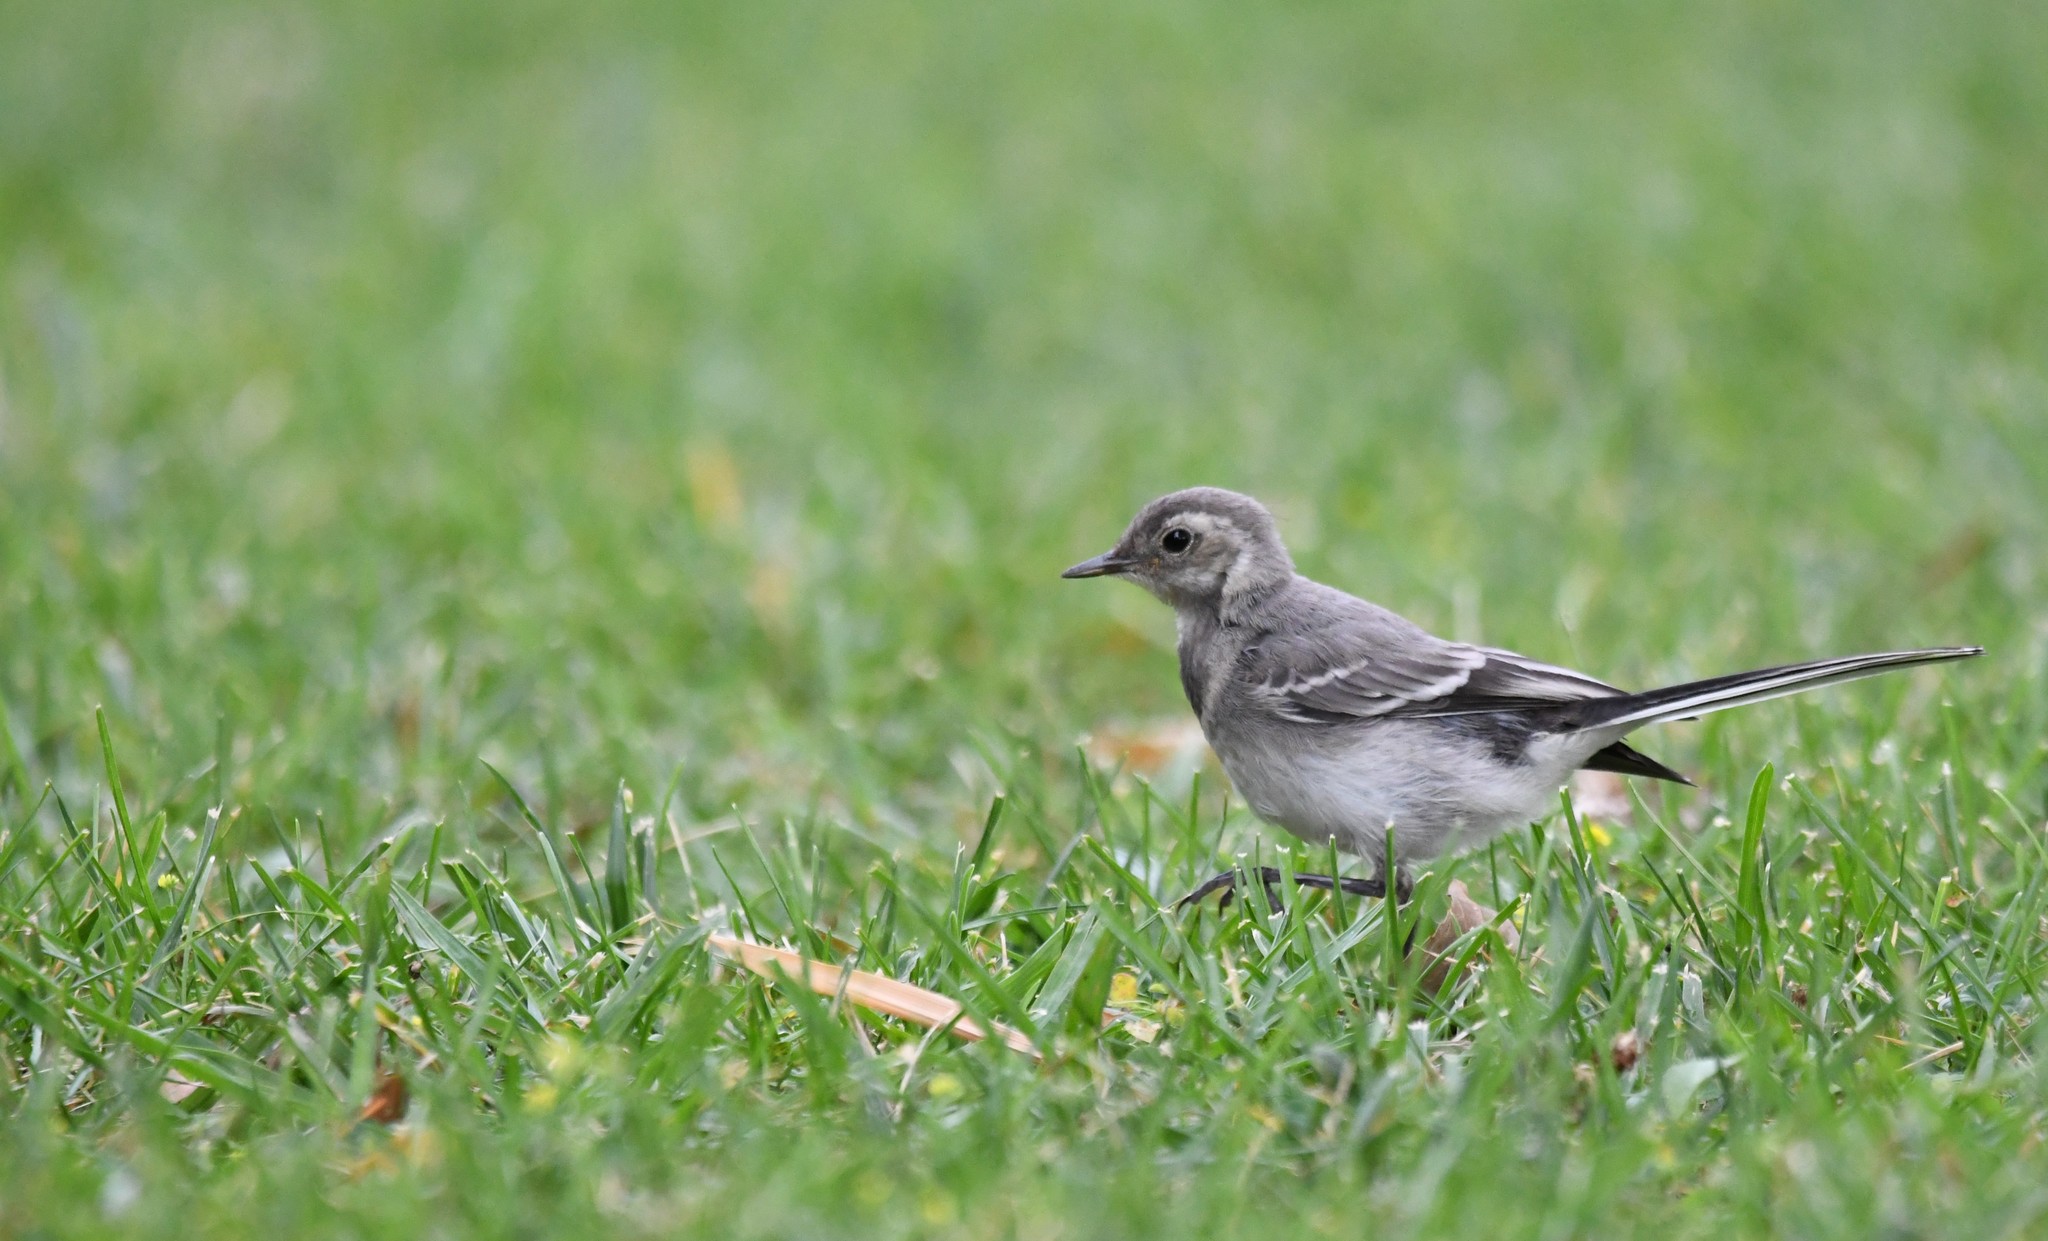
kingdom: Animalia
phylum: Chordata
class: Aves
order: Passeriformes
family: Motacillidae
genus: Motacilla
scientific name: Motacilla alba
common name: White wagtail
